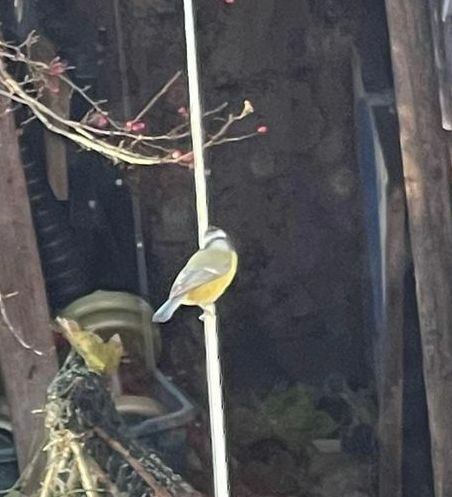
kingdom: Animalia
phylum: Chordata
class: Aves
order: Passeriformes
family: Paridae
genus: Cyanistes
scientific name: Cyanistes caeruleus
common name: Eurasian blue tit
